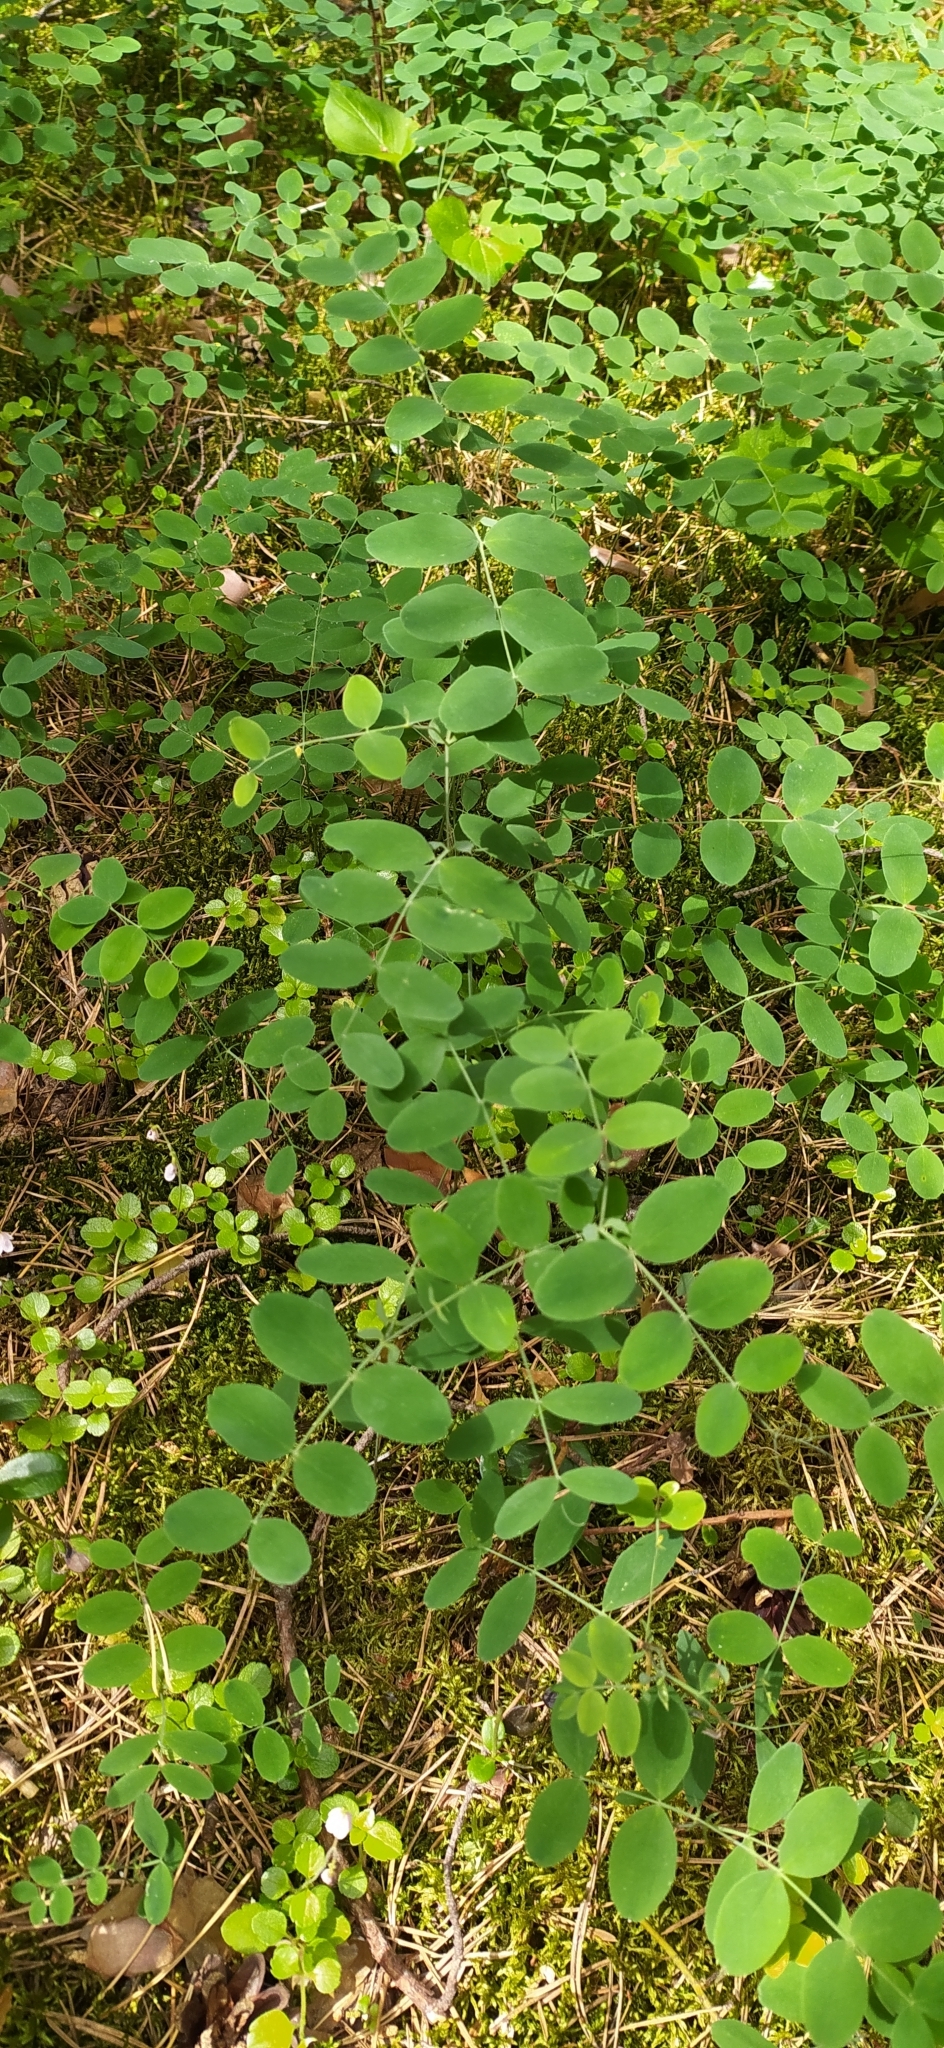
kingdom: Plantae
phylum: Tracheophyta
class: Magnoliopsida
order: Fabales
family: Fabaceae
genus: Lathyrus
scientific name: Lathyrus humilis
